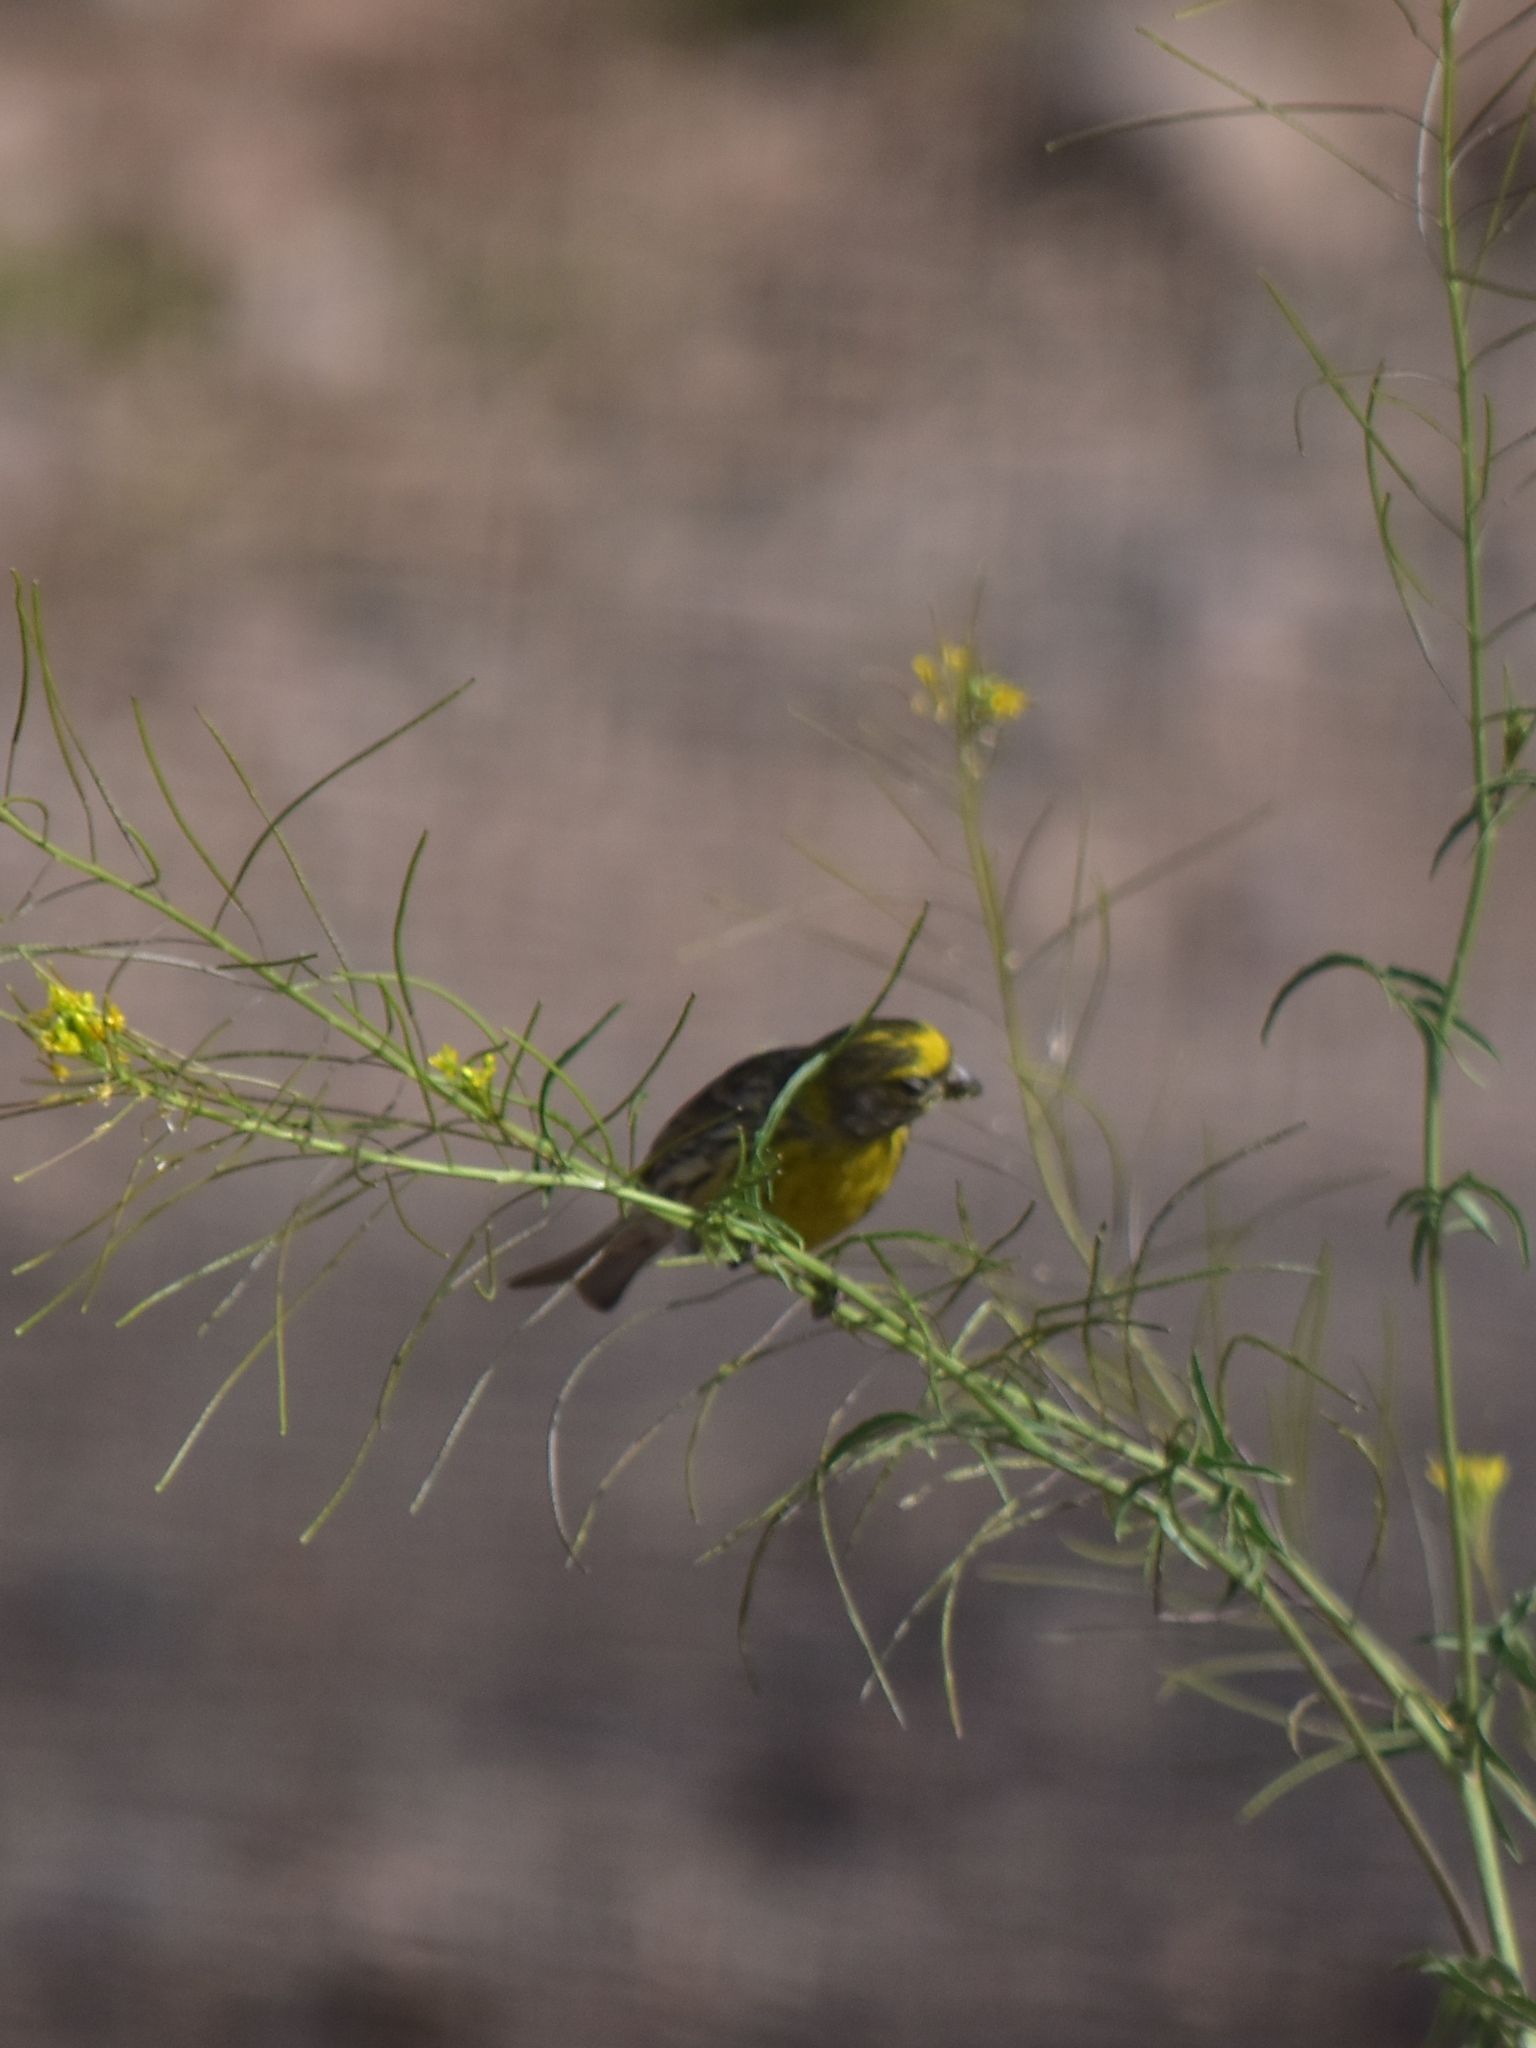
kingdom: Animalia
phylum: Chordata
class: Aves
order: Passeriformes
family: Fringillidae
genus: Serinus
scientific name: Serinus serinus
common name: European serin
